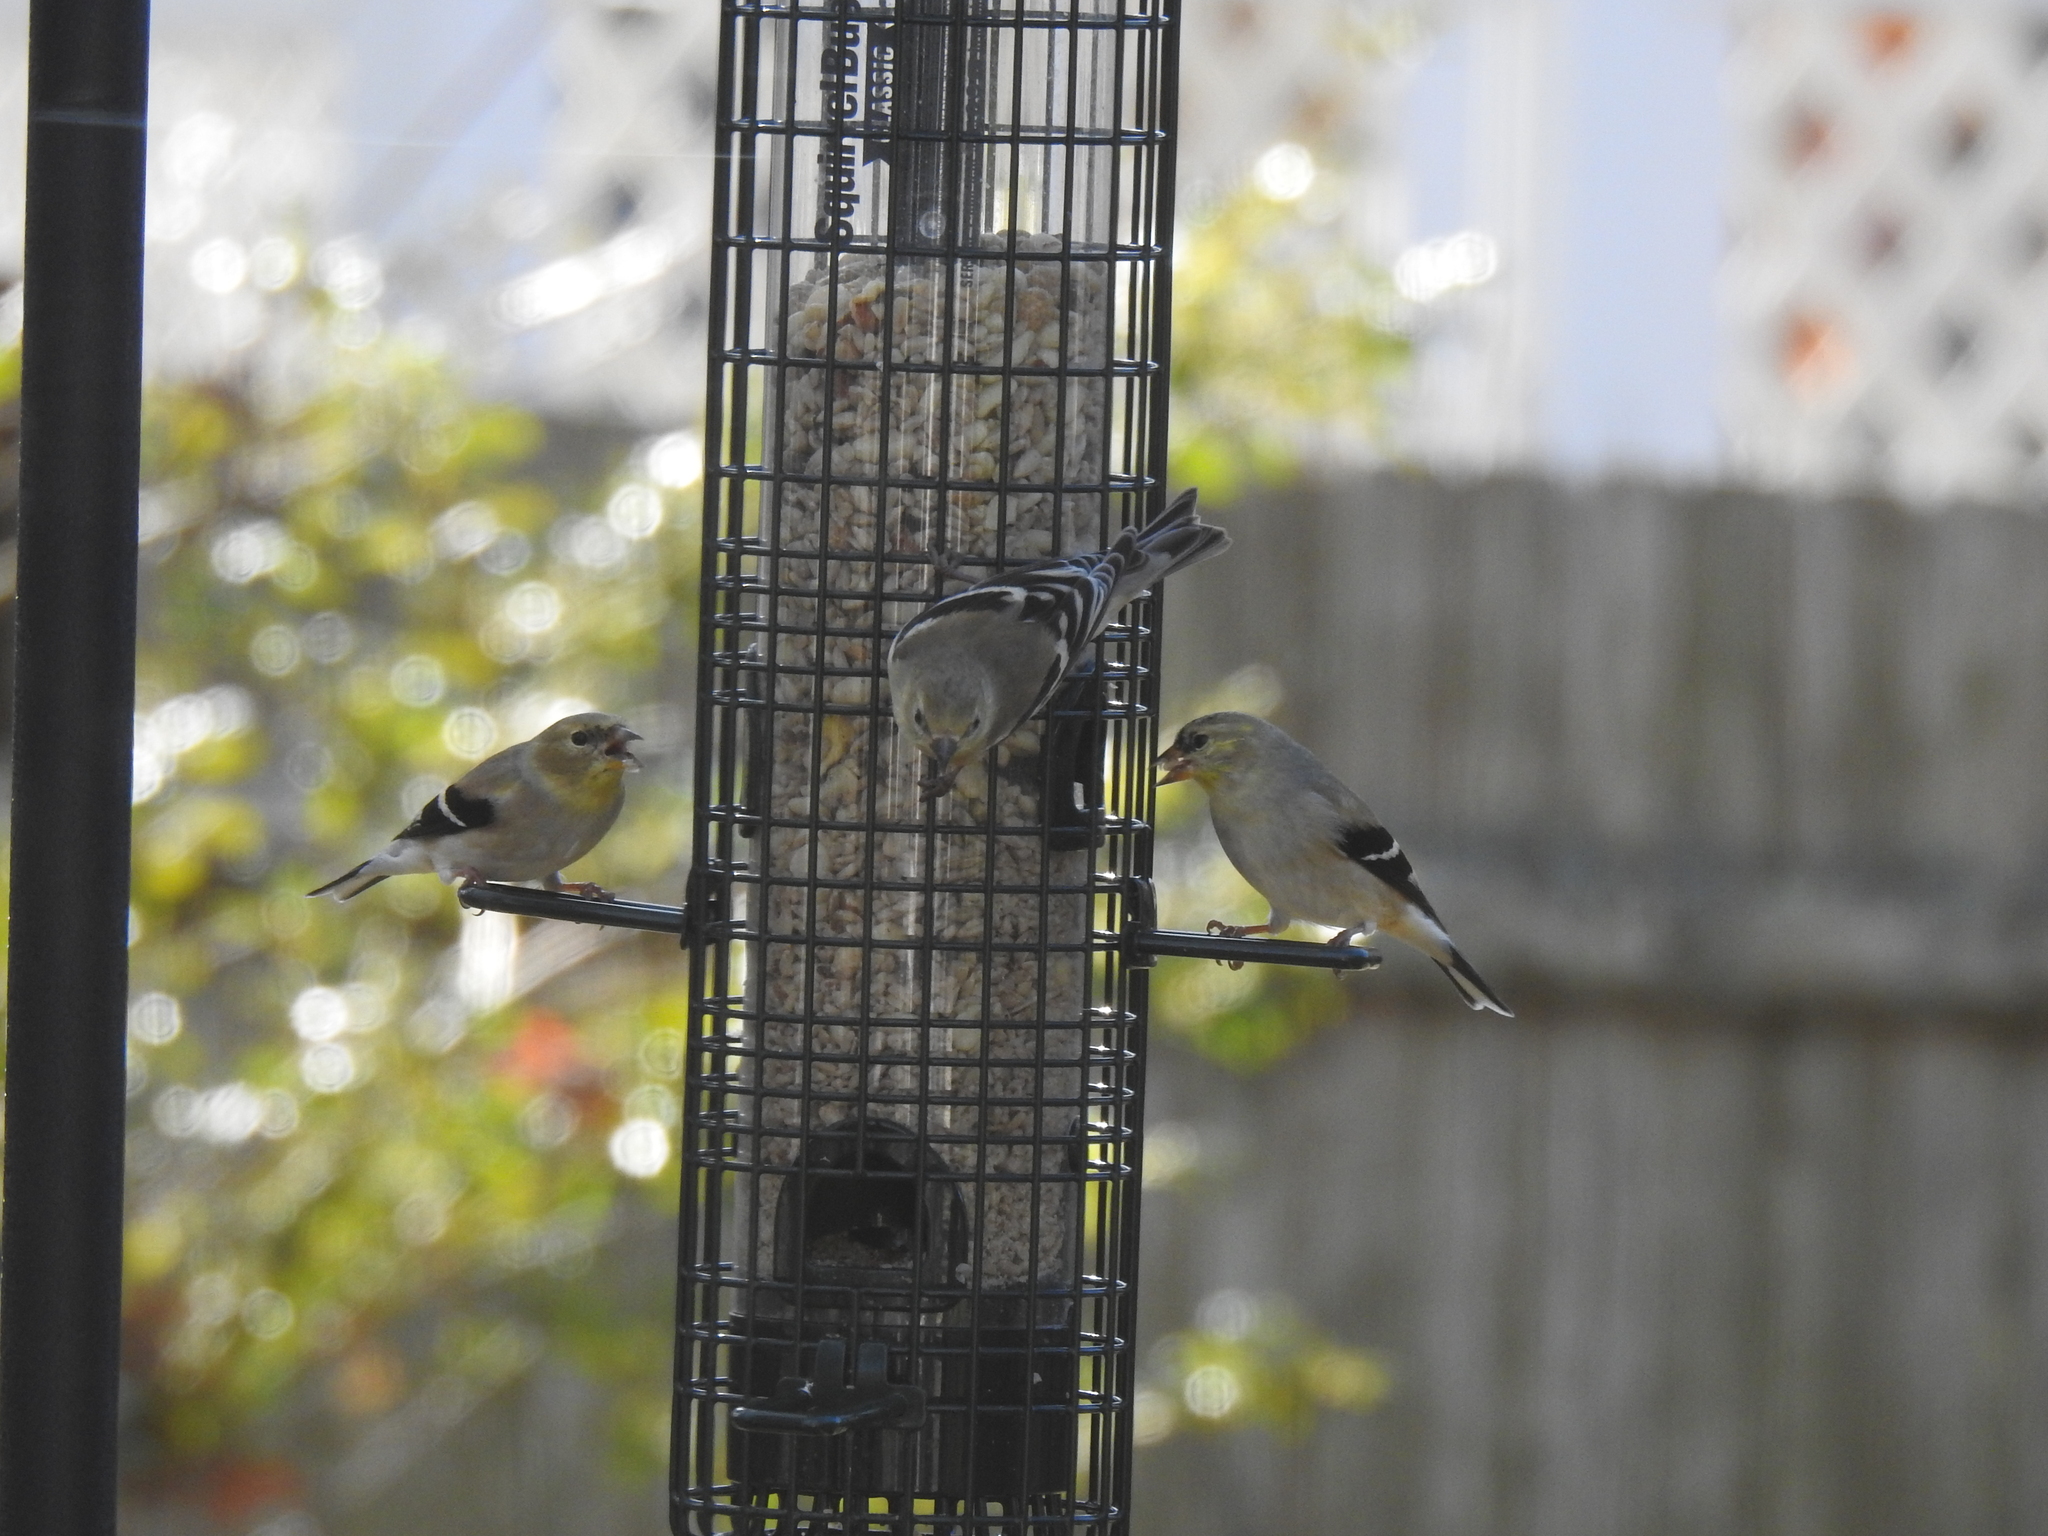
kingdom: Animalia
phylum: Chordata
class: Aves
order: Passeriformes
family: Fringillidae
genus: Spinus
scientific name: Spinus tristis
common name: American goldfinch
